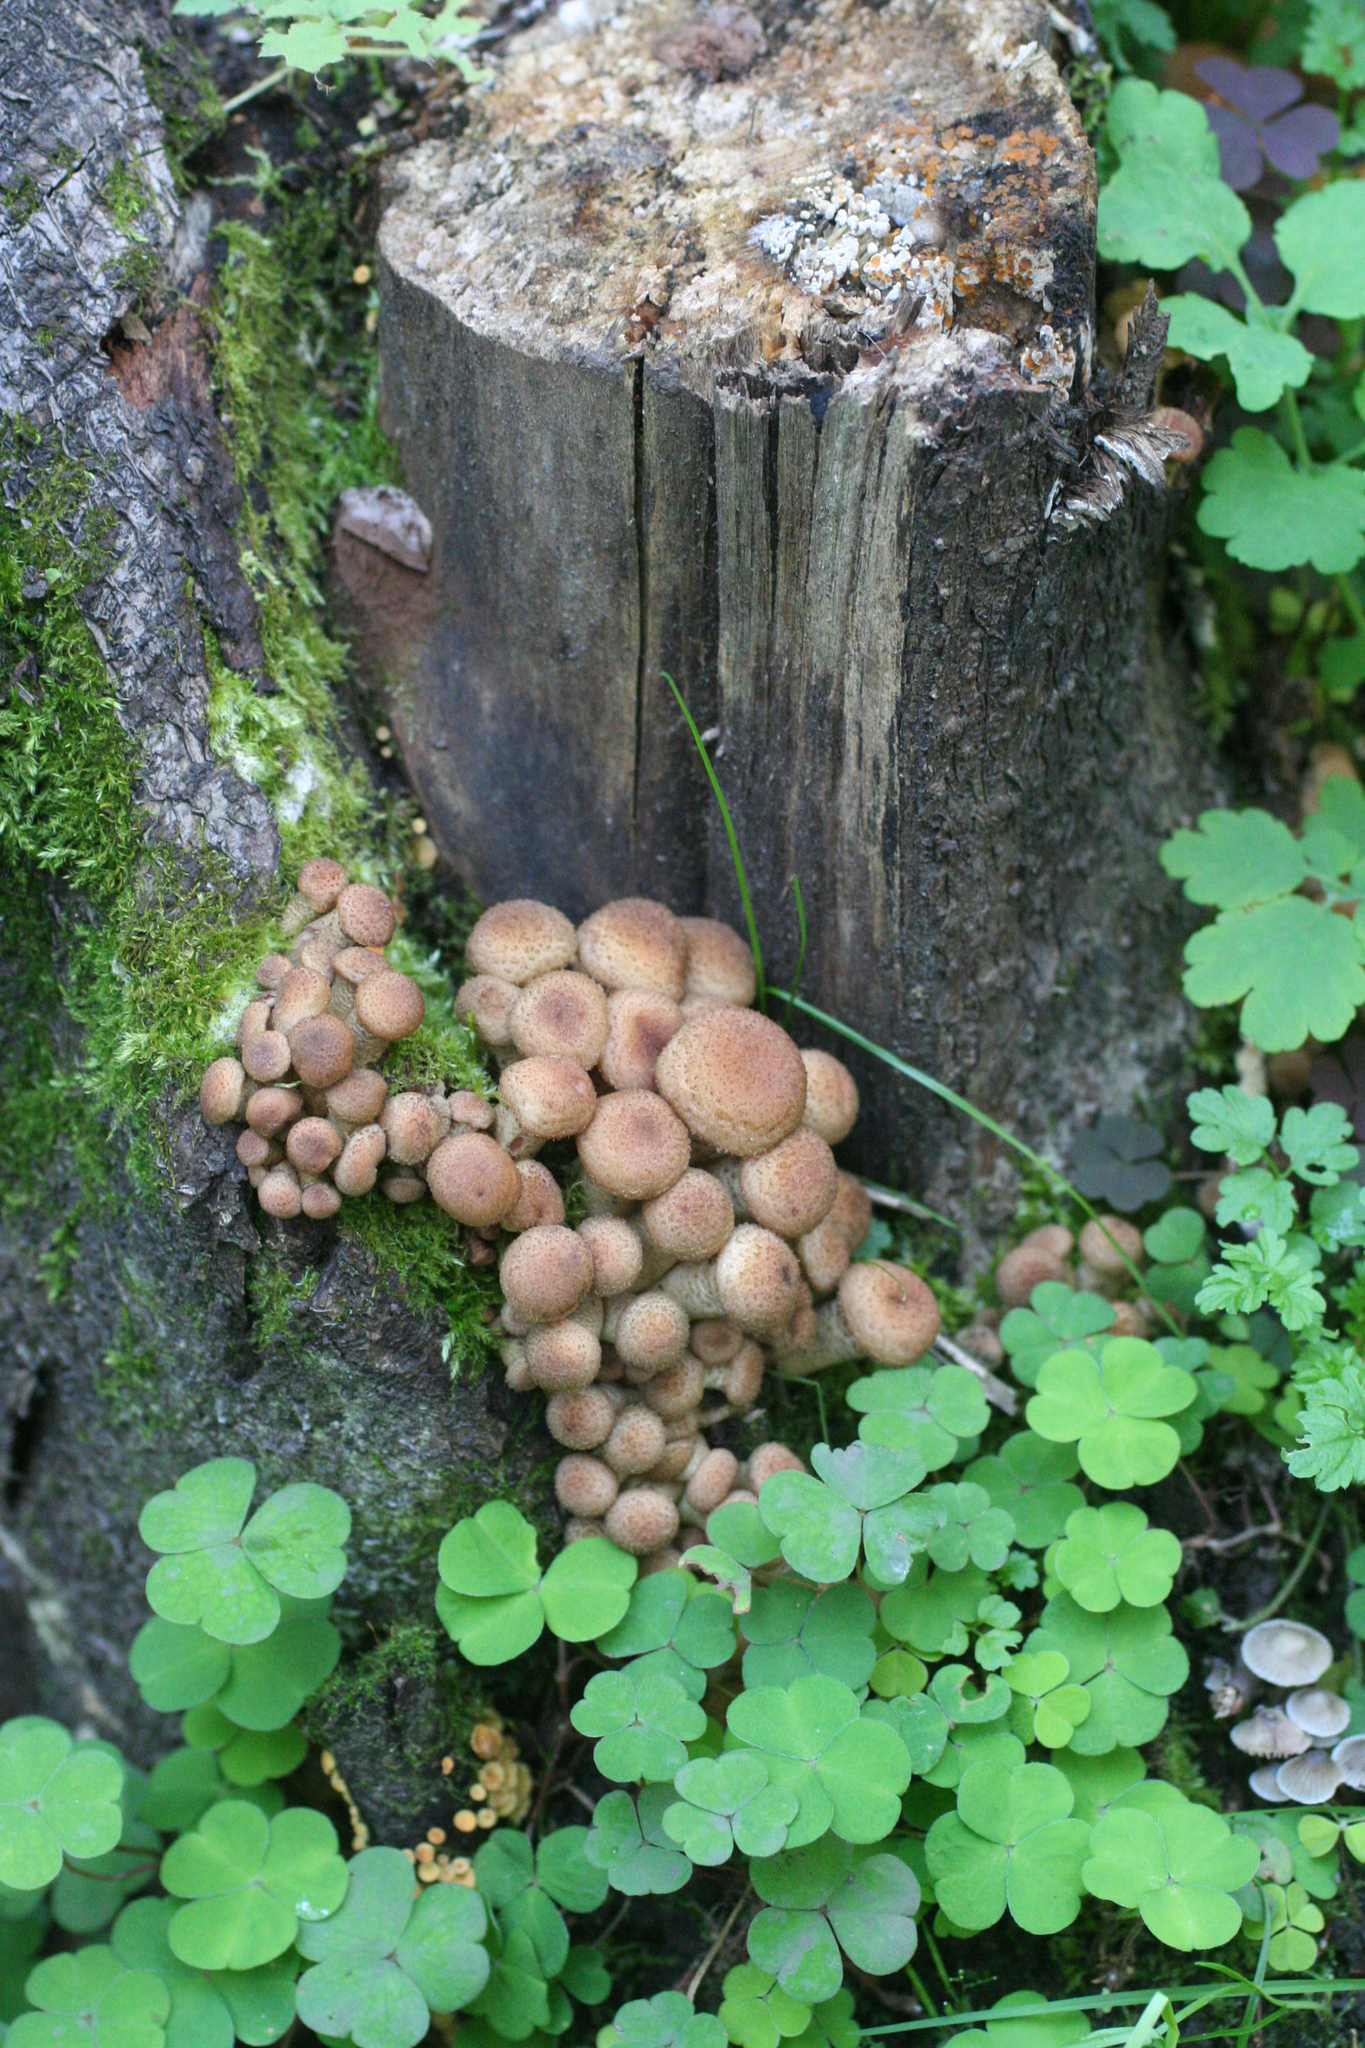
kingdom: Fungi
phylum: Basidiomycota
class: Agaricomycetes
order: Agaricales
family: Physalacriaceae
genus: Armillaria
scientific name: Armillaria borealis
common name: Northern honey fungus
